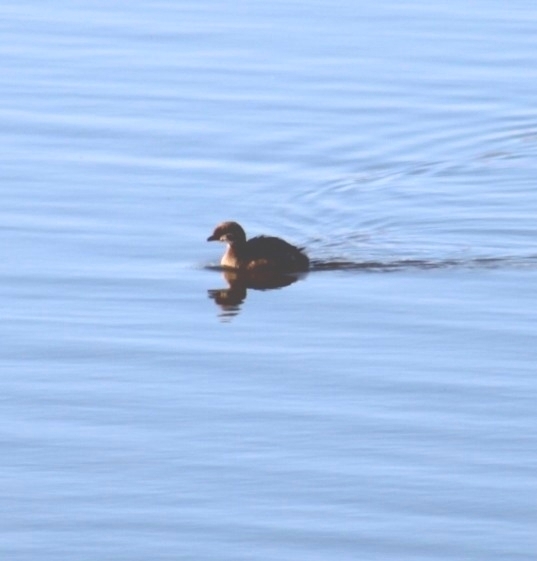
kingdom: Animalia
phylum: Chordata
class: Aves
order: Podicipediformes
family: Podicipedidae
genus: Podilymbus
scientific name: Podilymbus podiceps
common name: Pied-billed grebe
